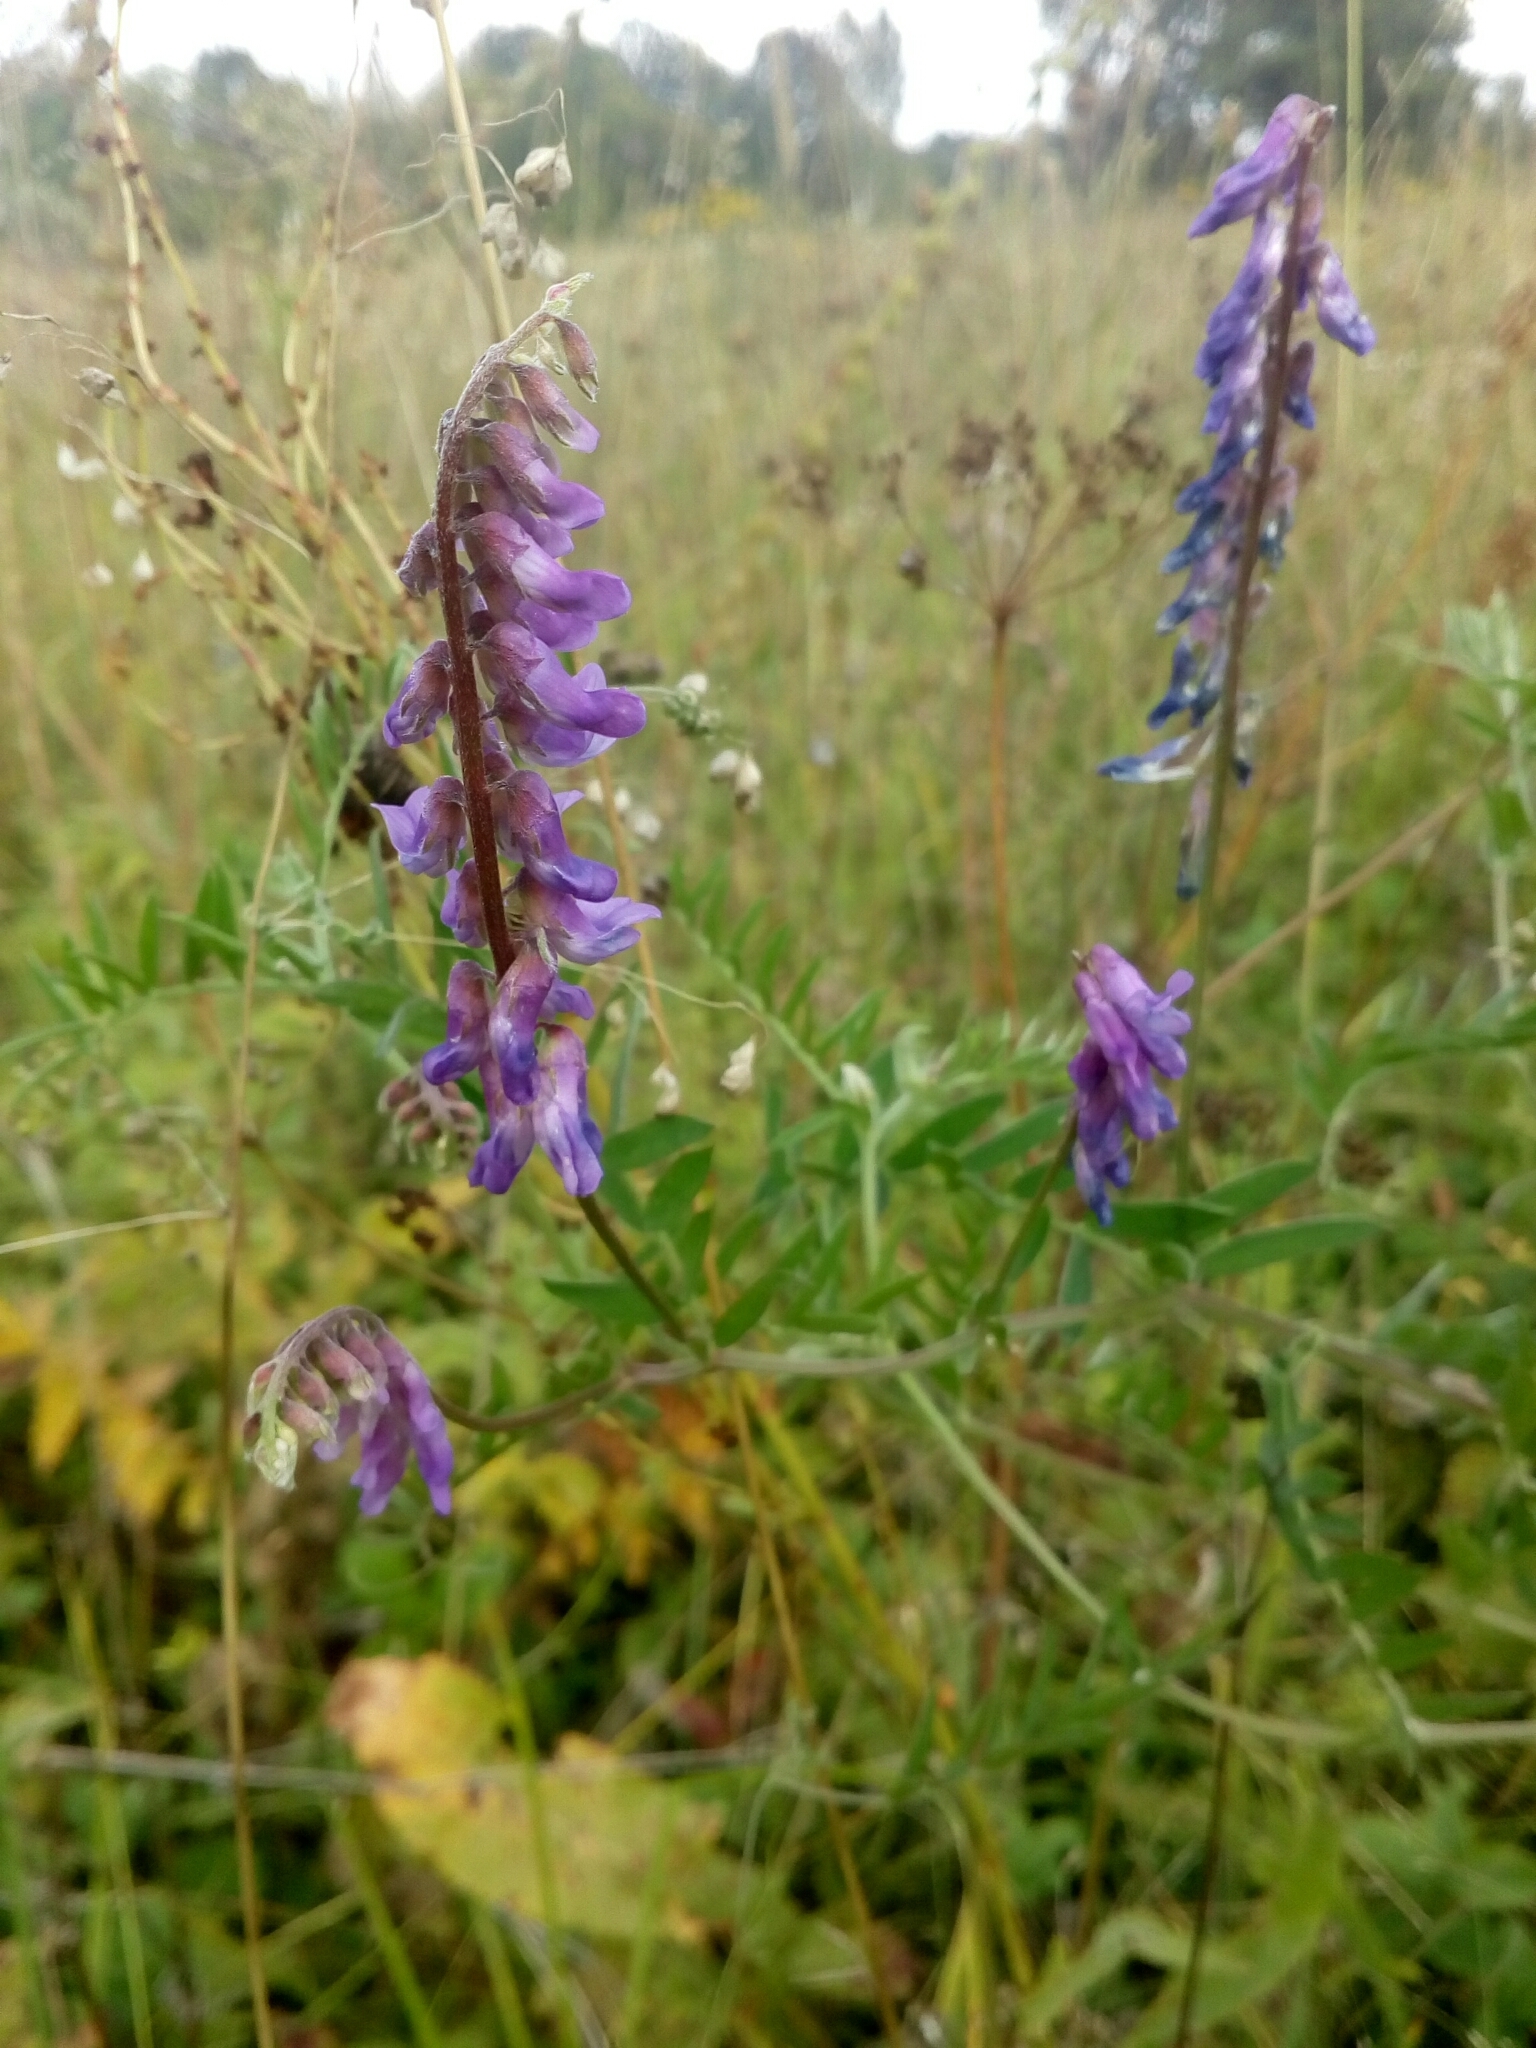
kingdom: Plantae
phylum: Tracheophyta
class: Magnoliopsida
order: Fabales
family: Fabaceae
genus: Vicia
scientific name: Vicia cracca
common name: Bird vetch
